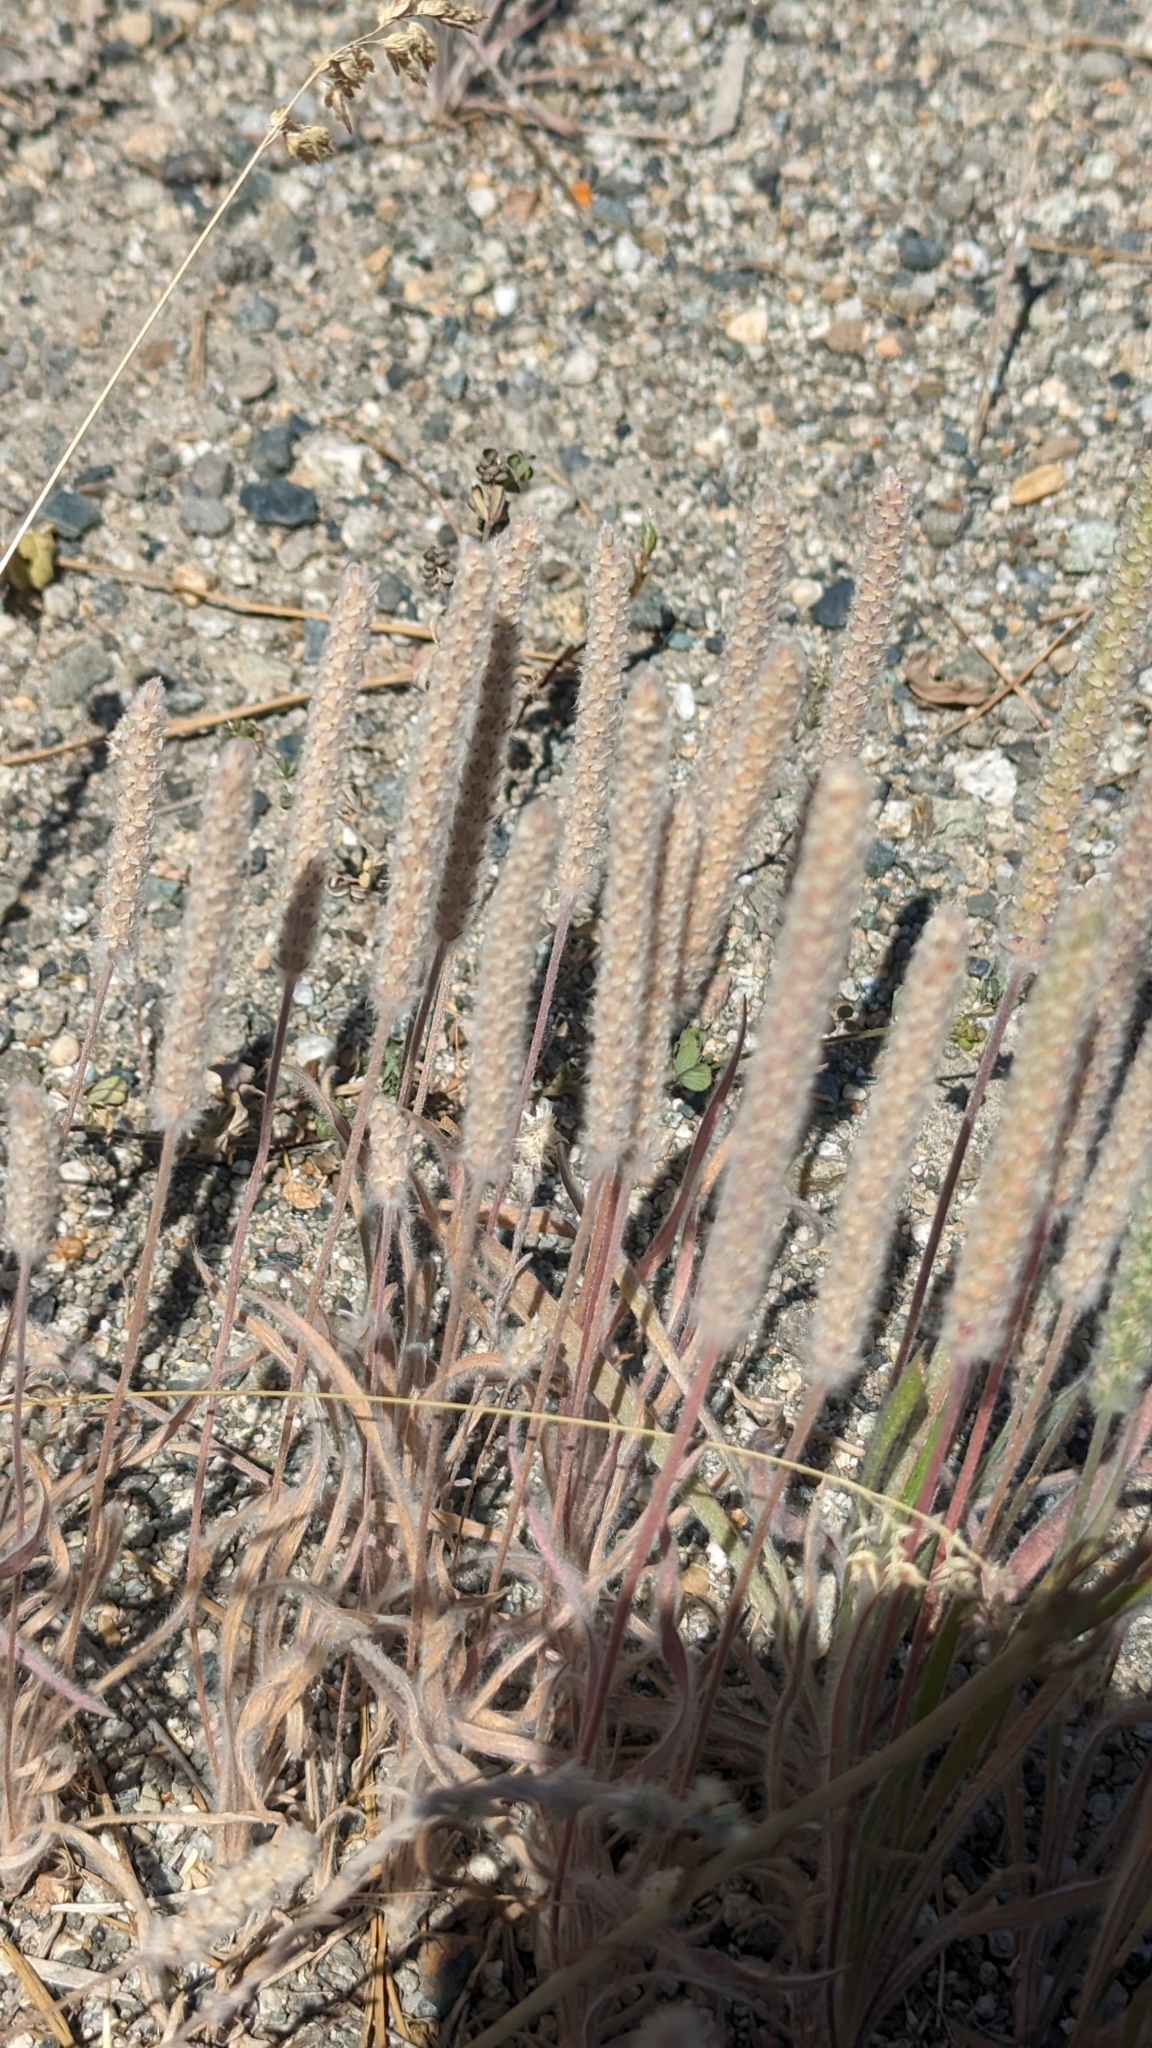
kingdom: Plantae
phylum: Tracheophyta
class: Magnoliopsida
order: Lamiales
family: Plantaginaceae
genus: Plantago
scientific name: Plantago patagonica
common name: Patagonia indian-wheat
